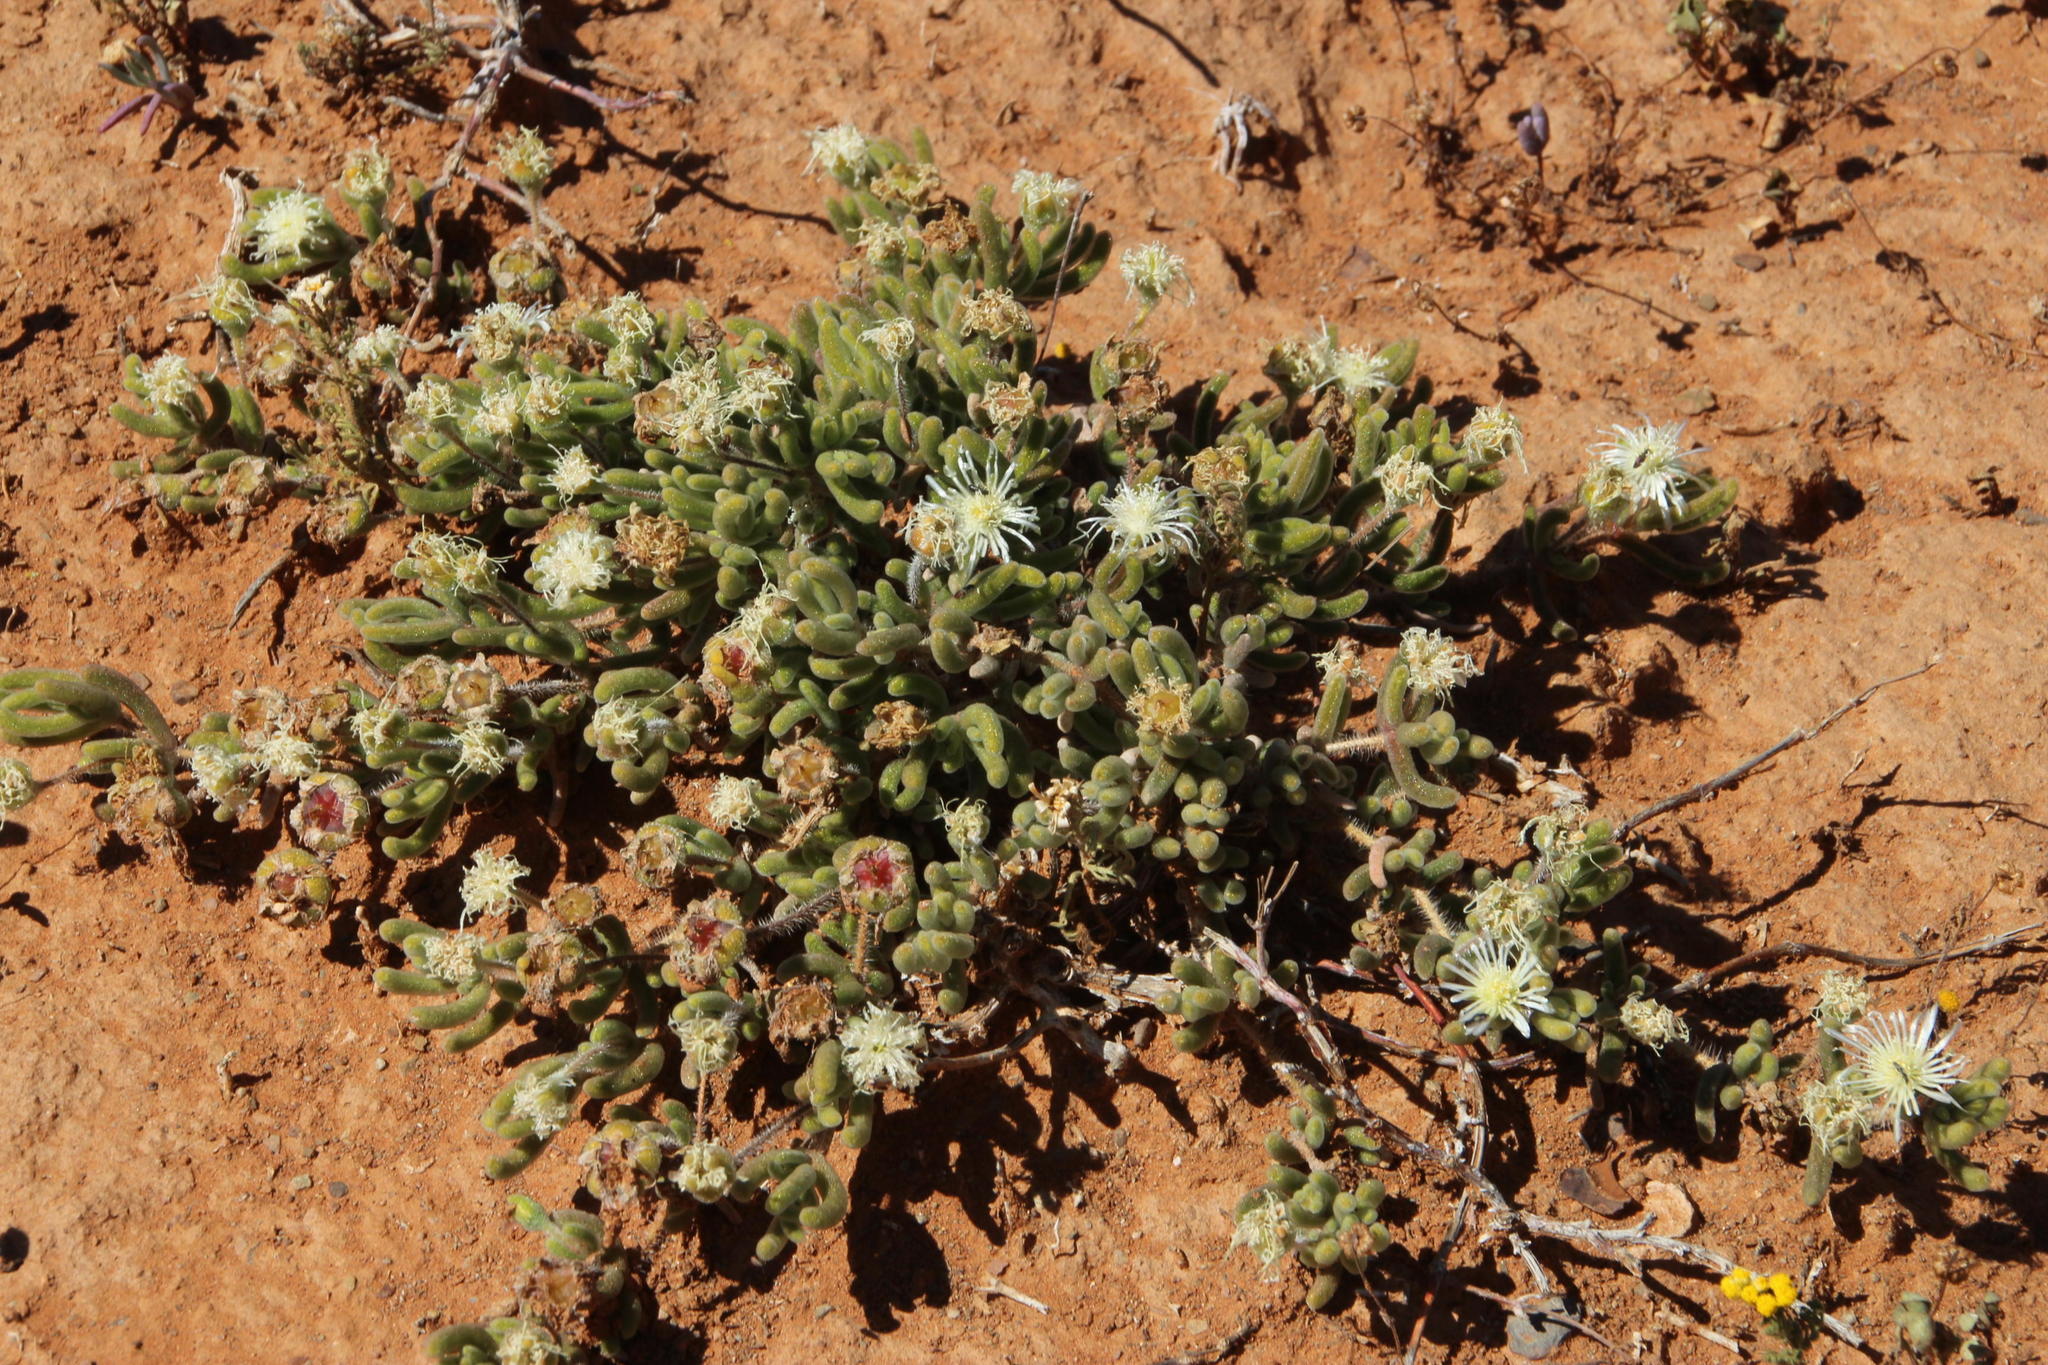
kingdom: Plantae
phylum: Tracheophyta
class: Magnoliopsida
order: Caryophyllales
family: Aizoaceae
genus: Drosanthemum
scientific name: Drosanthemum eburneum
